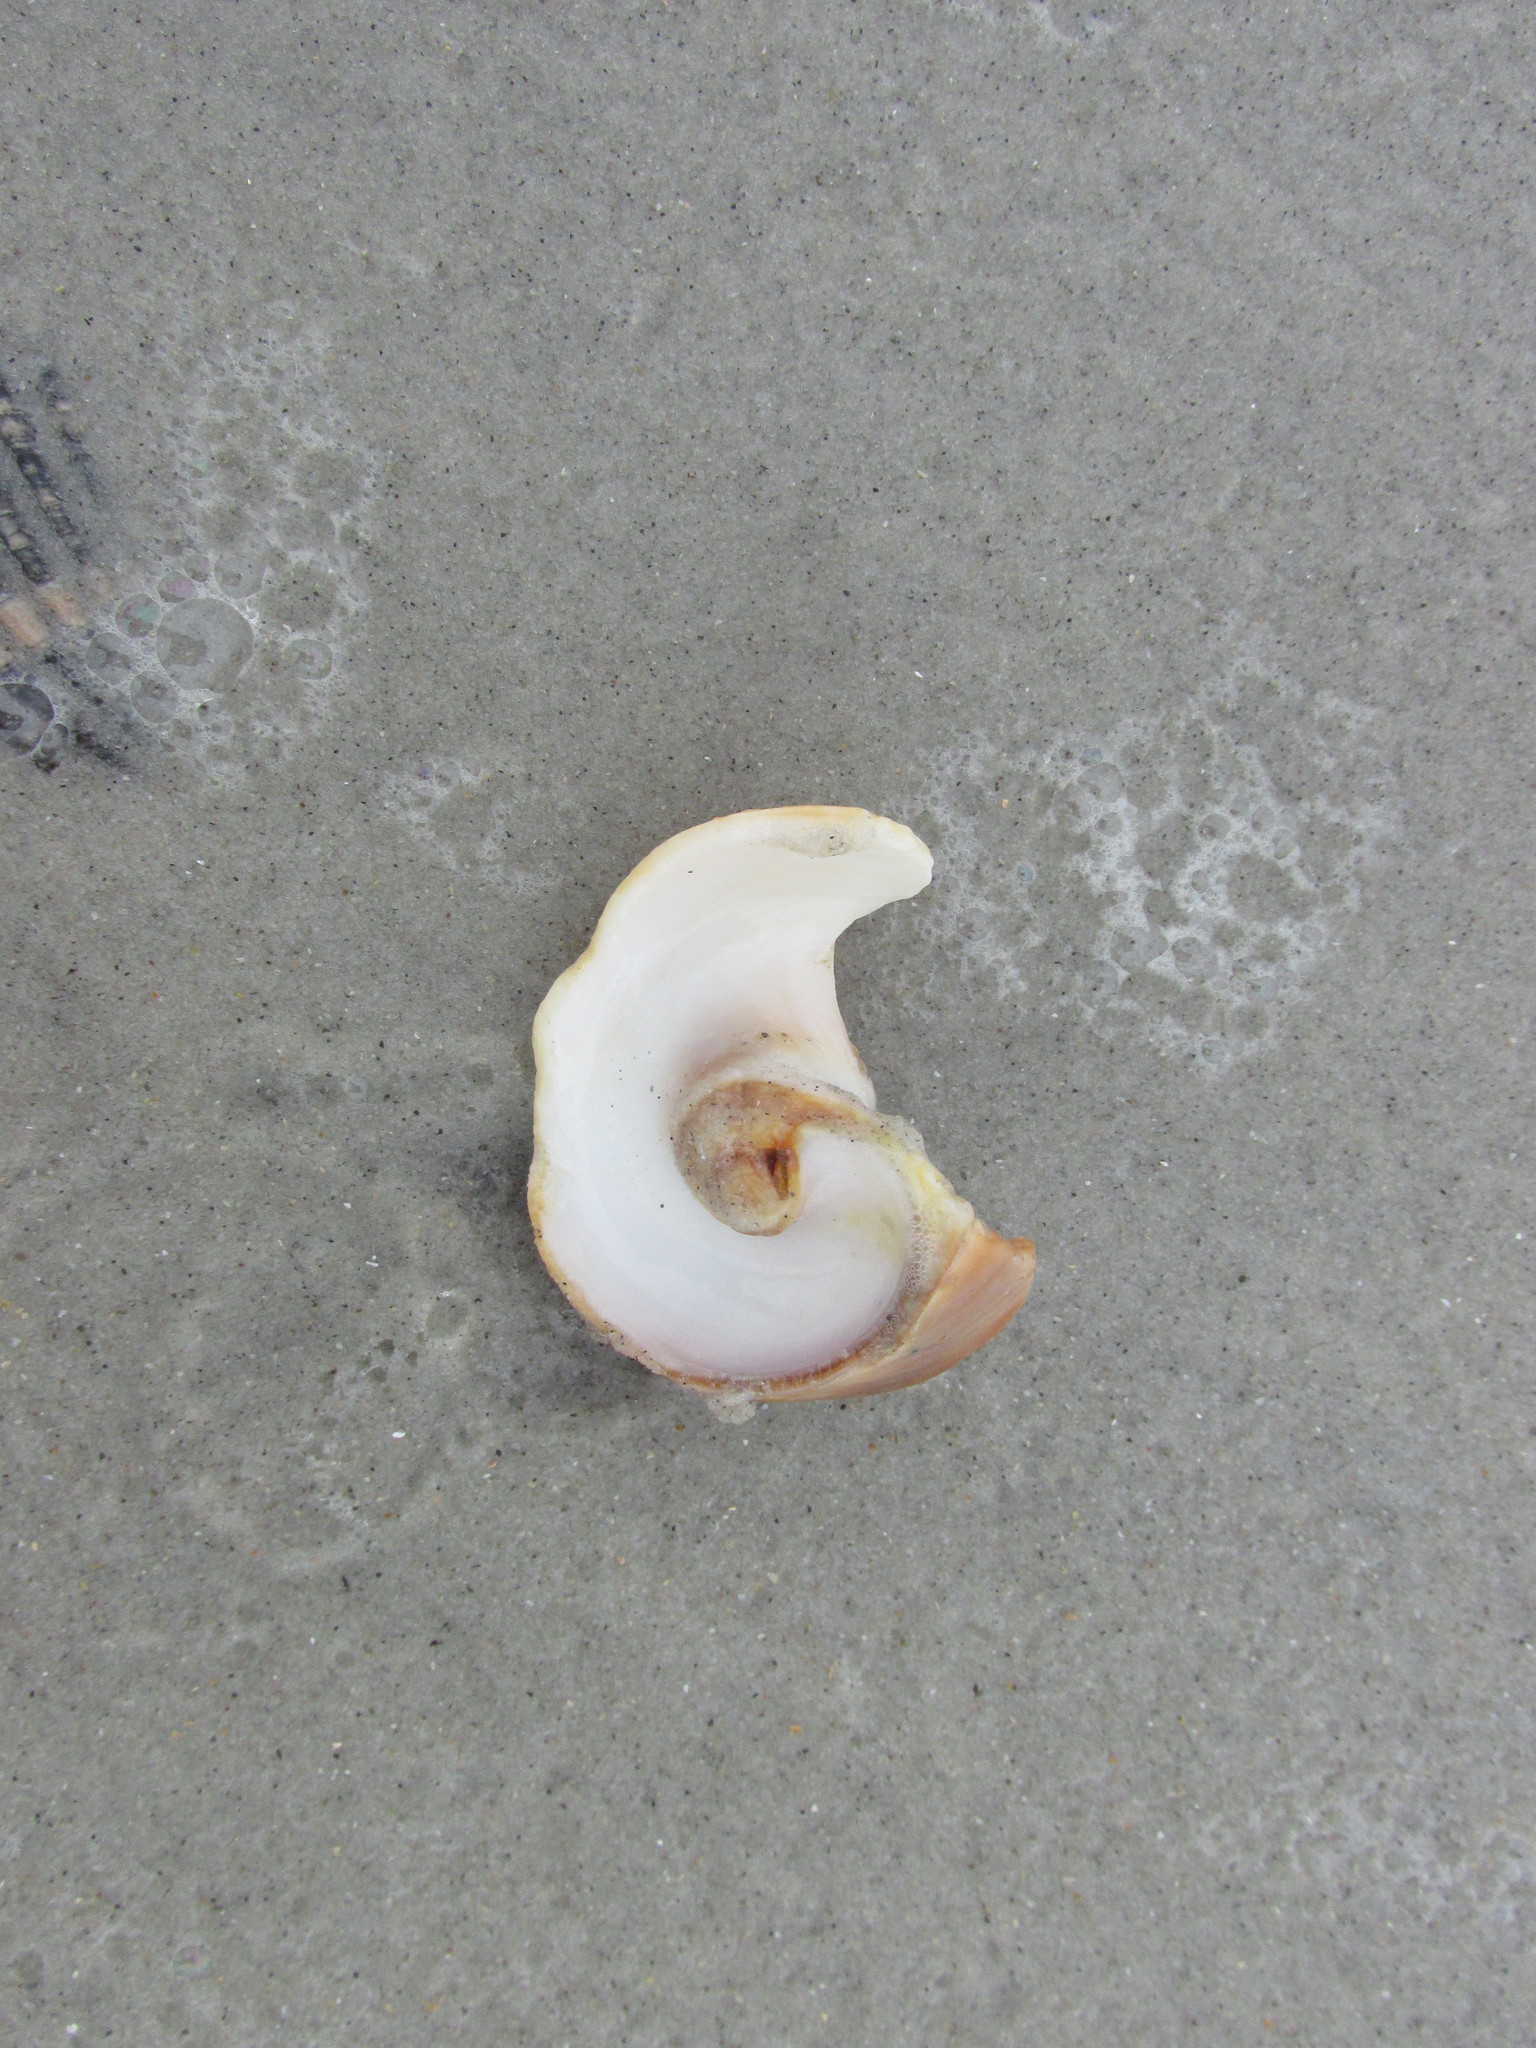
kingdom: Animalia
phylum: Mollusca
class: Gastropoda
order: Littorinimorpha
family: Naticidae
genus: Neverita
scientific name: Neverita duplicata
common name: Lobed moonsnail
